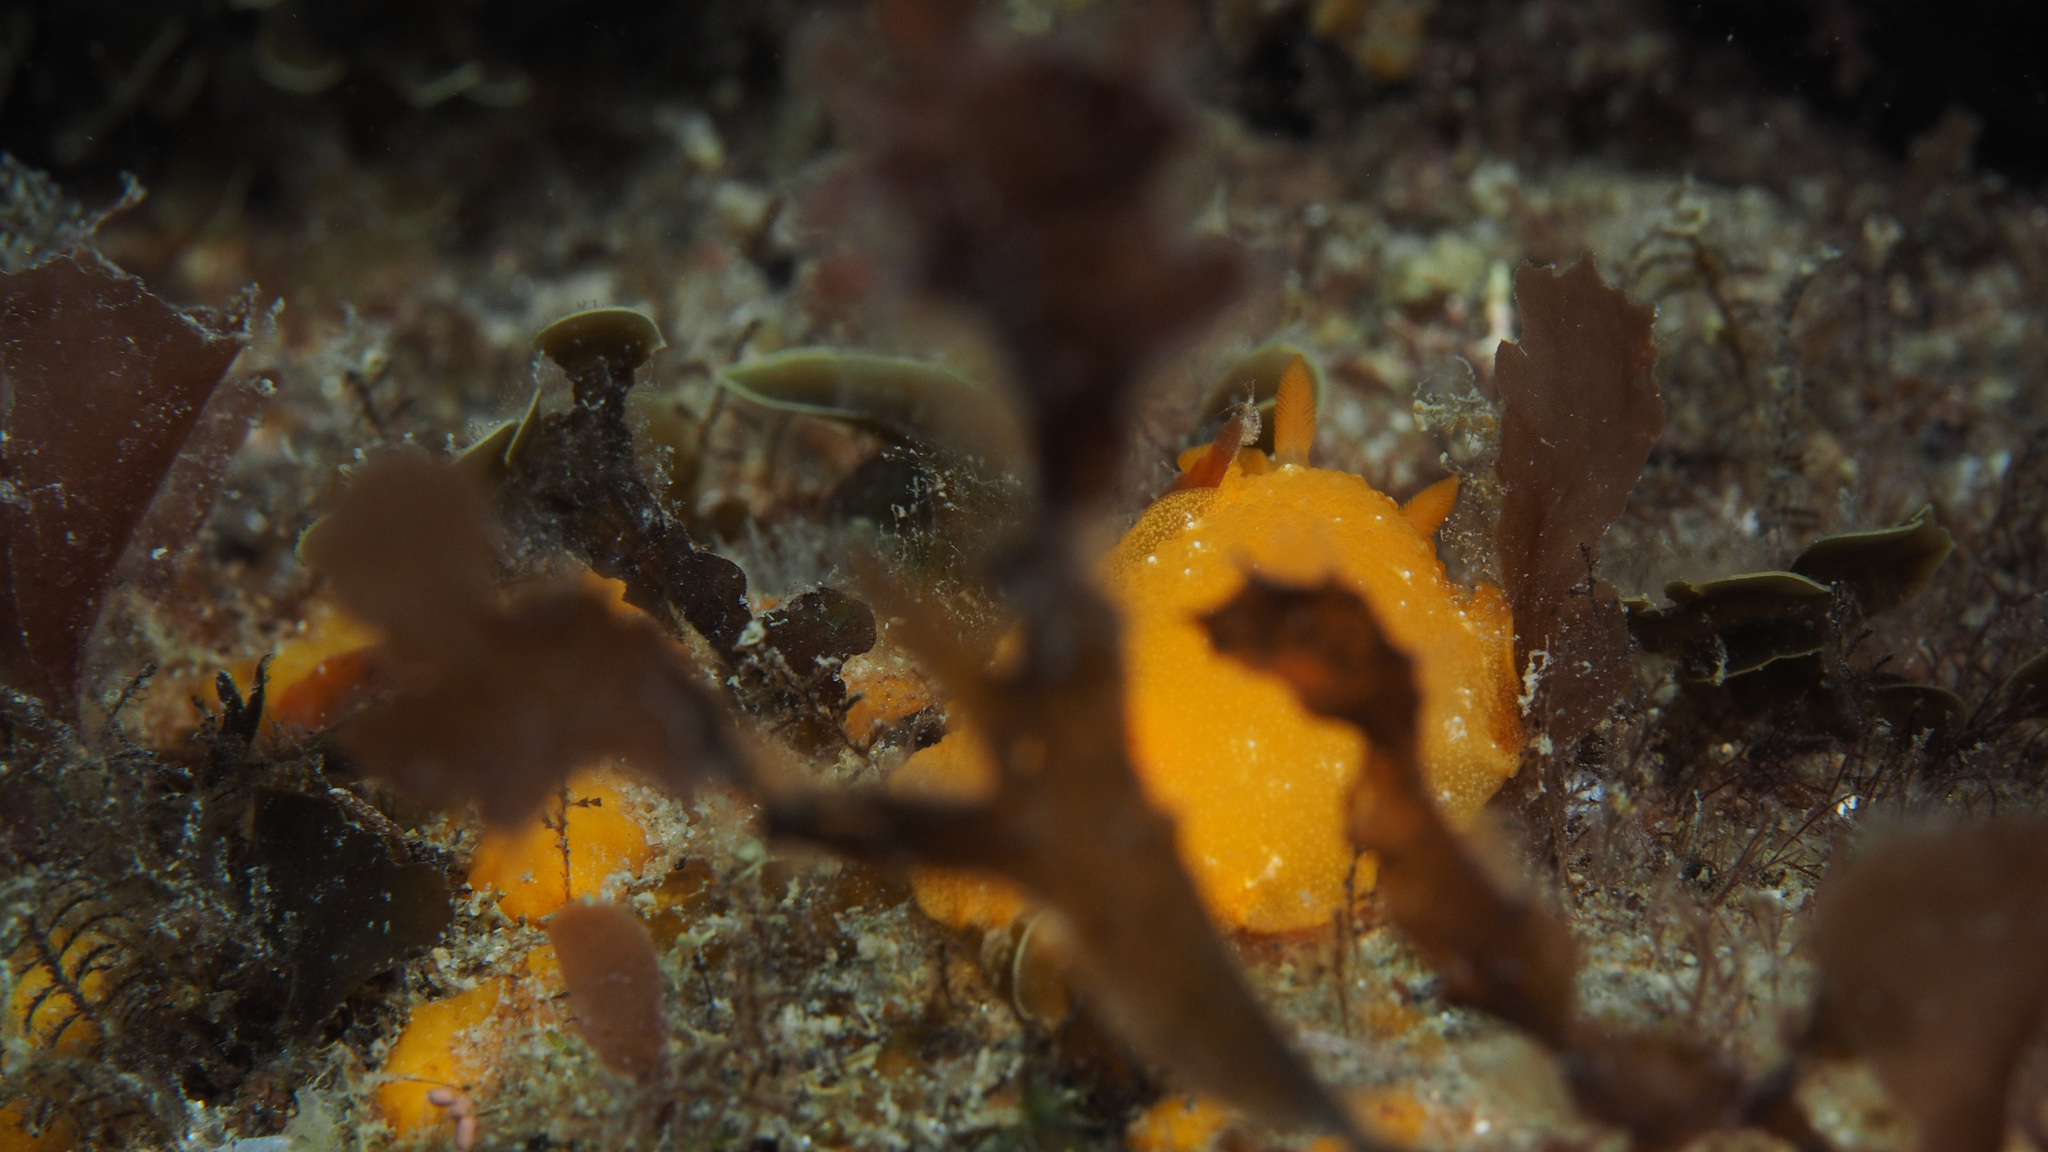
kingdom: Animalia
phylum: Mollusca
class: Gastropoda
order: Nudibranchia
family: Dendrodorididae
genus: Doriopsilla
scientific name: Doriopsilla carneola
